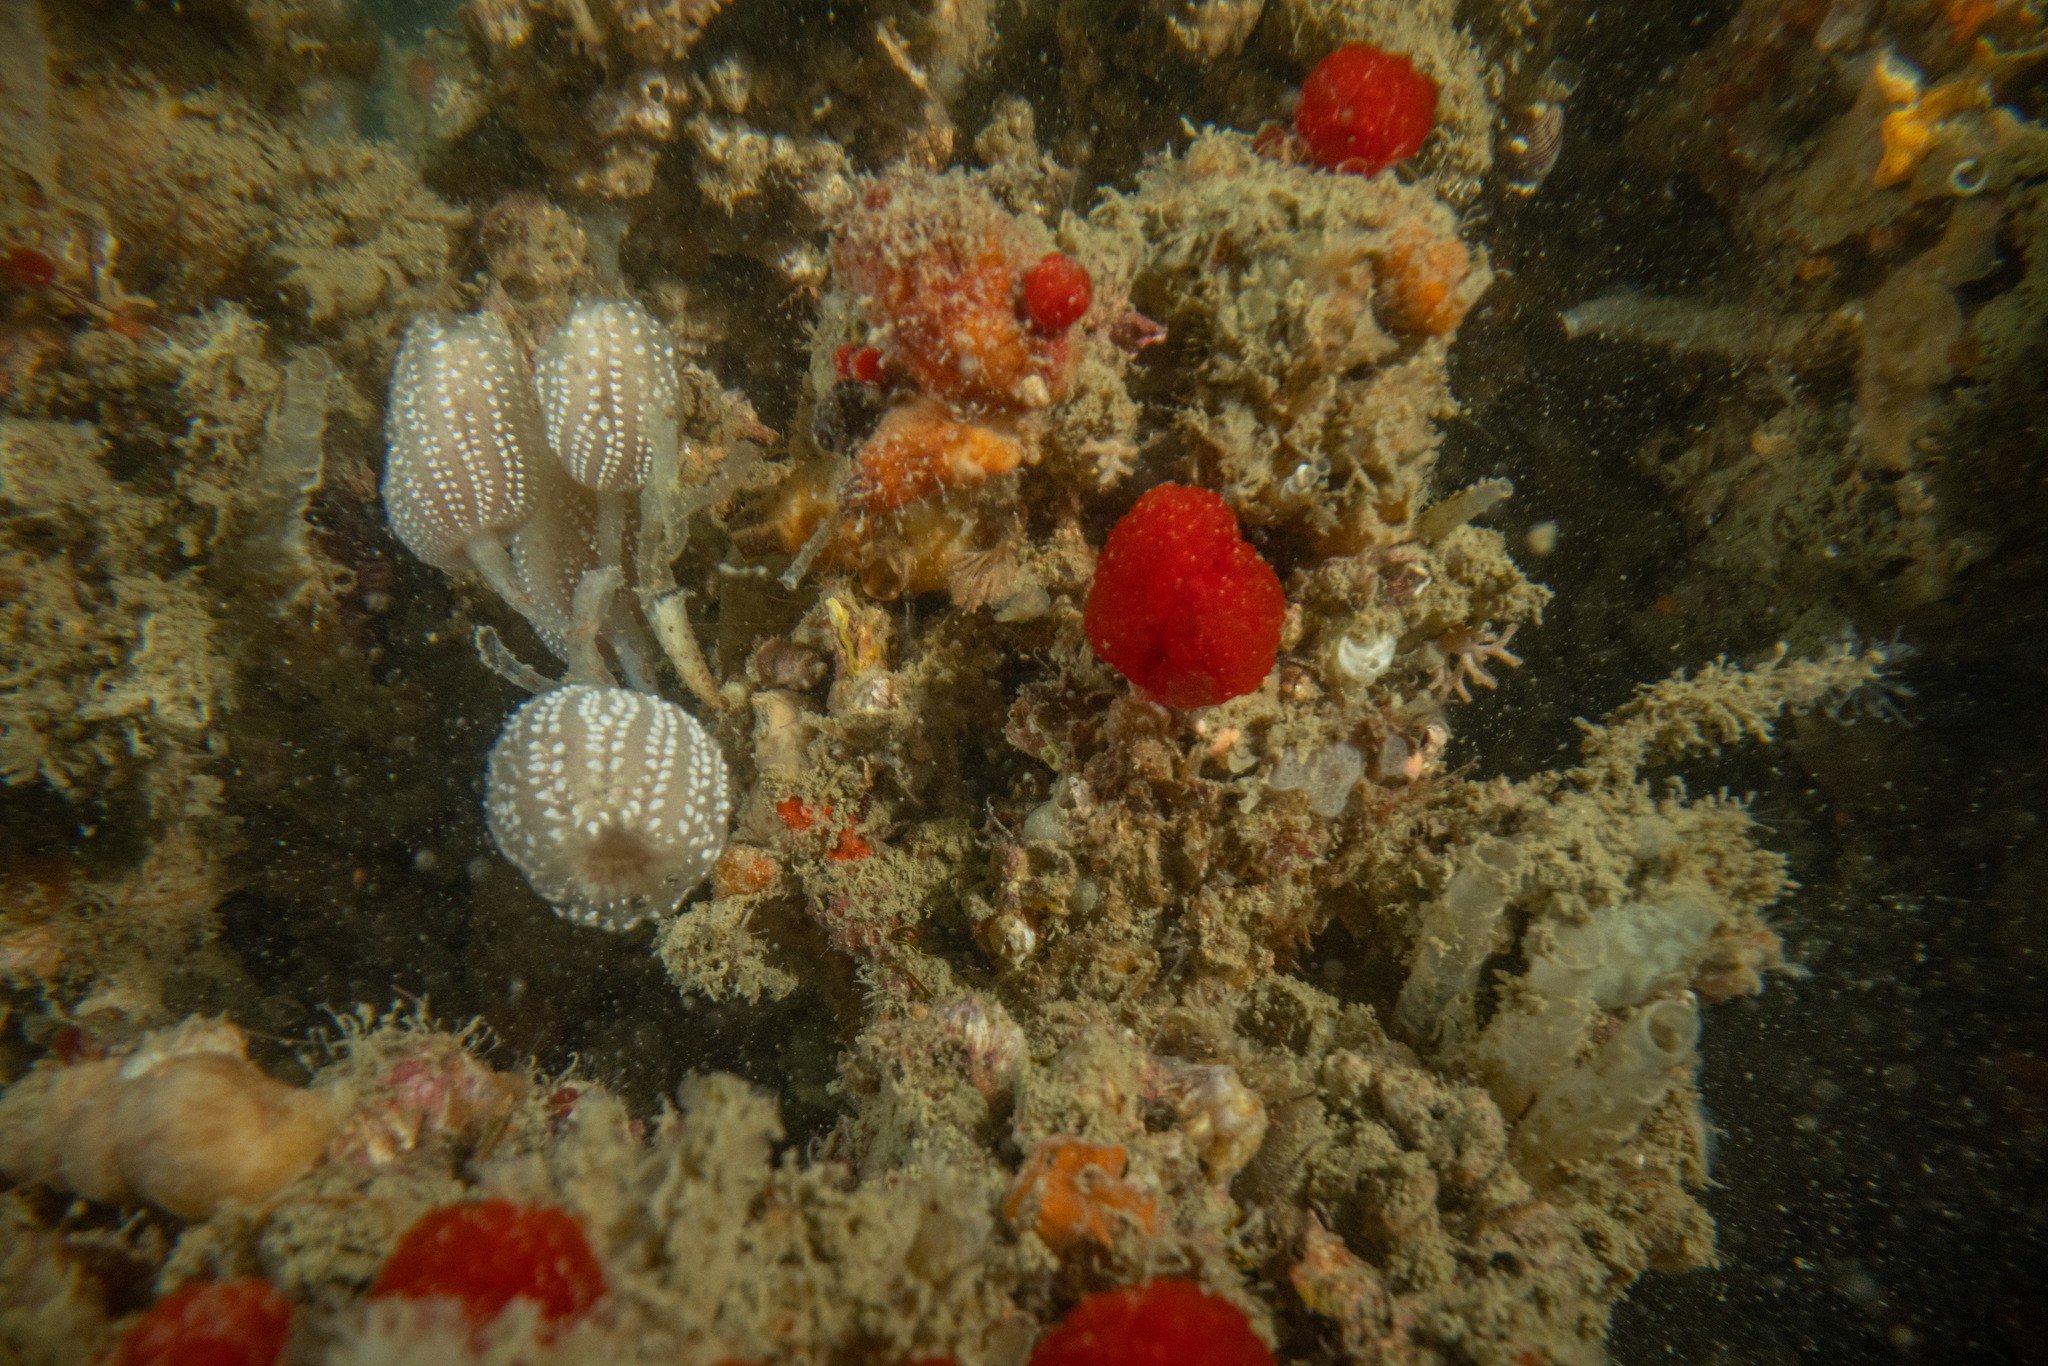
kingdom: Animalia
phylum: Chordata
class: Ascidiacea
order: Aplousobranchia
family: Polyclinidae
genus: Synoicum
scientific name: Synoicum kuranui
